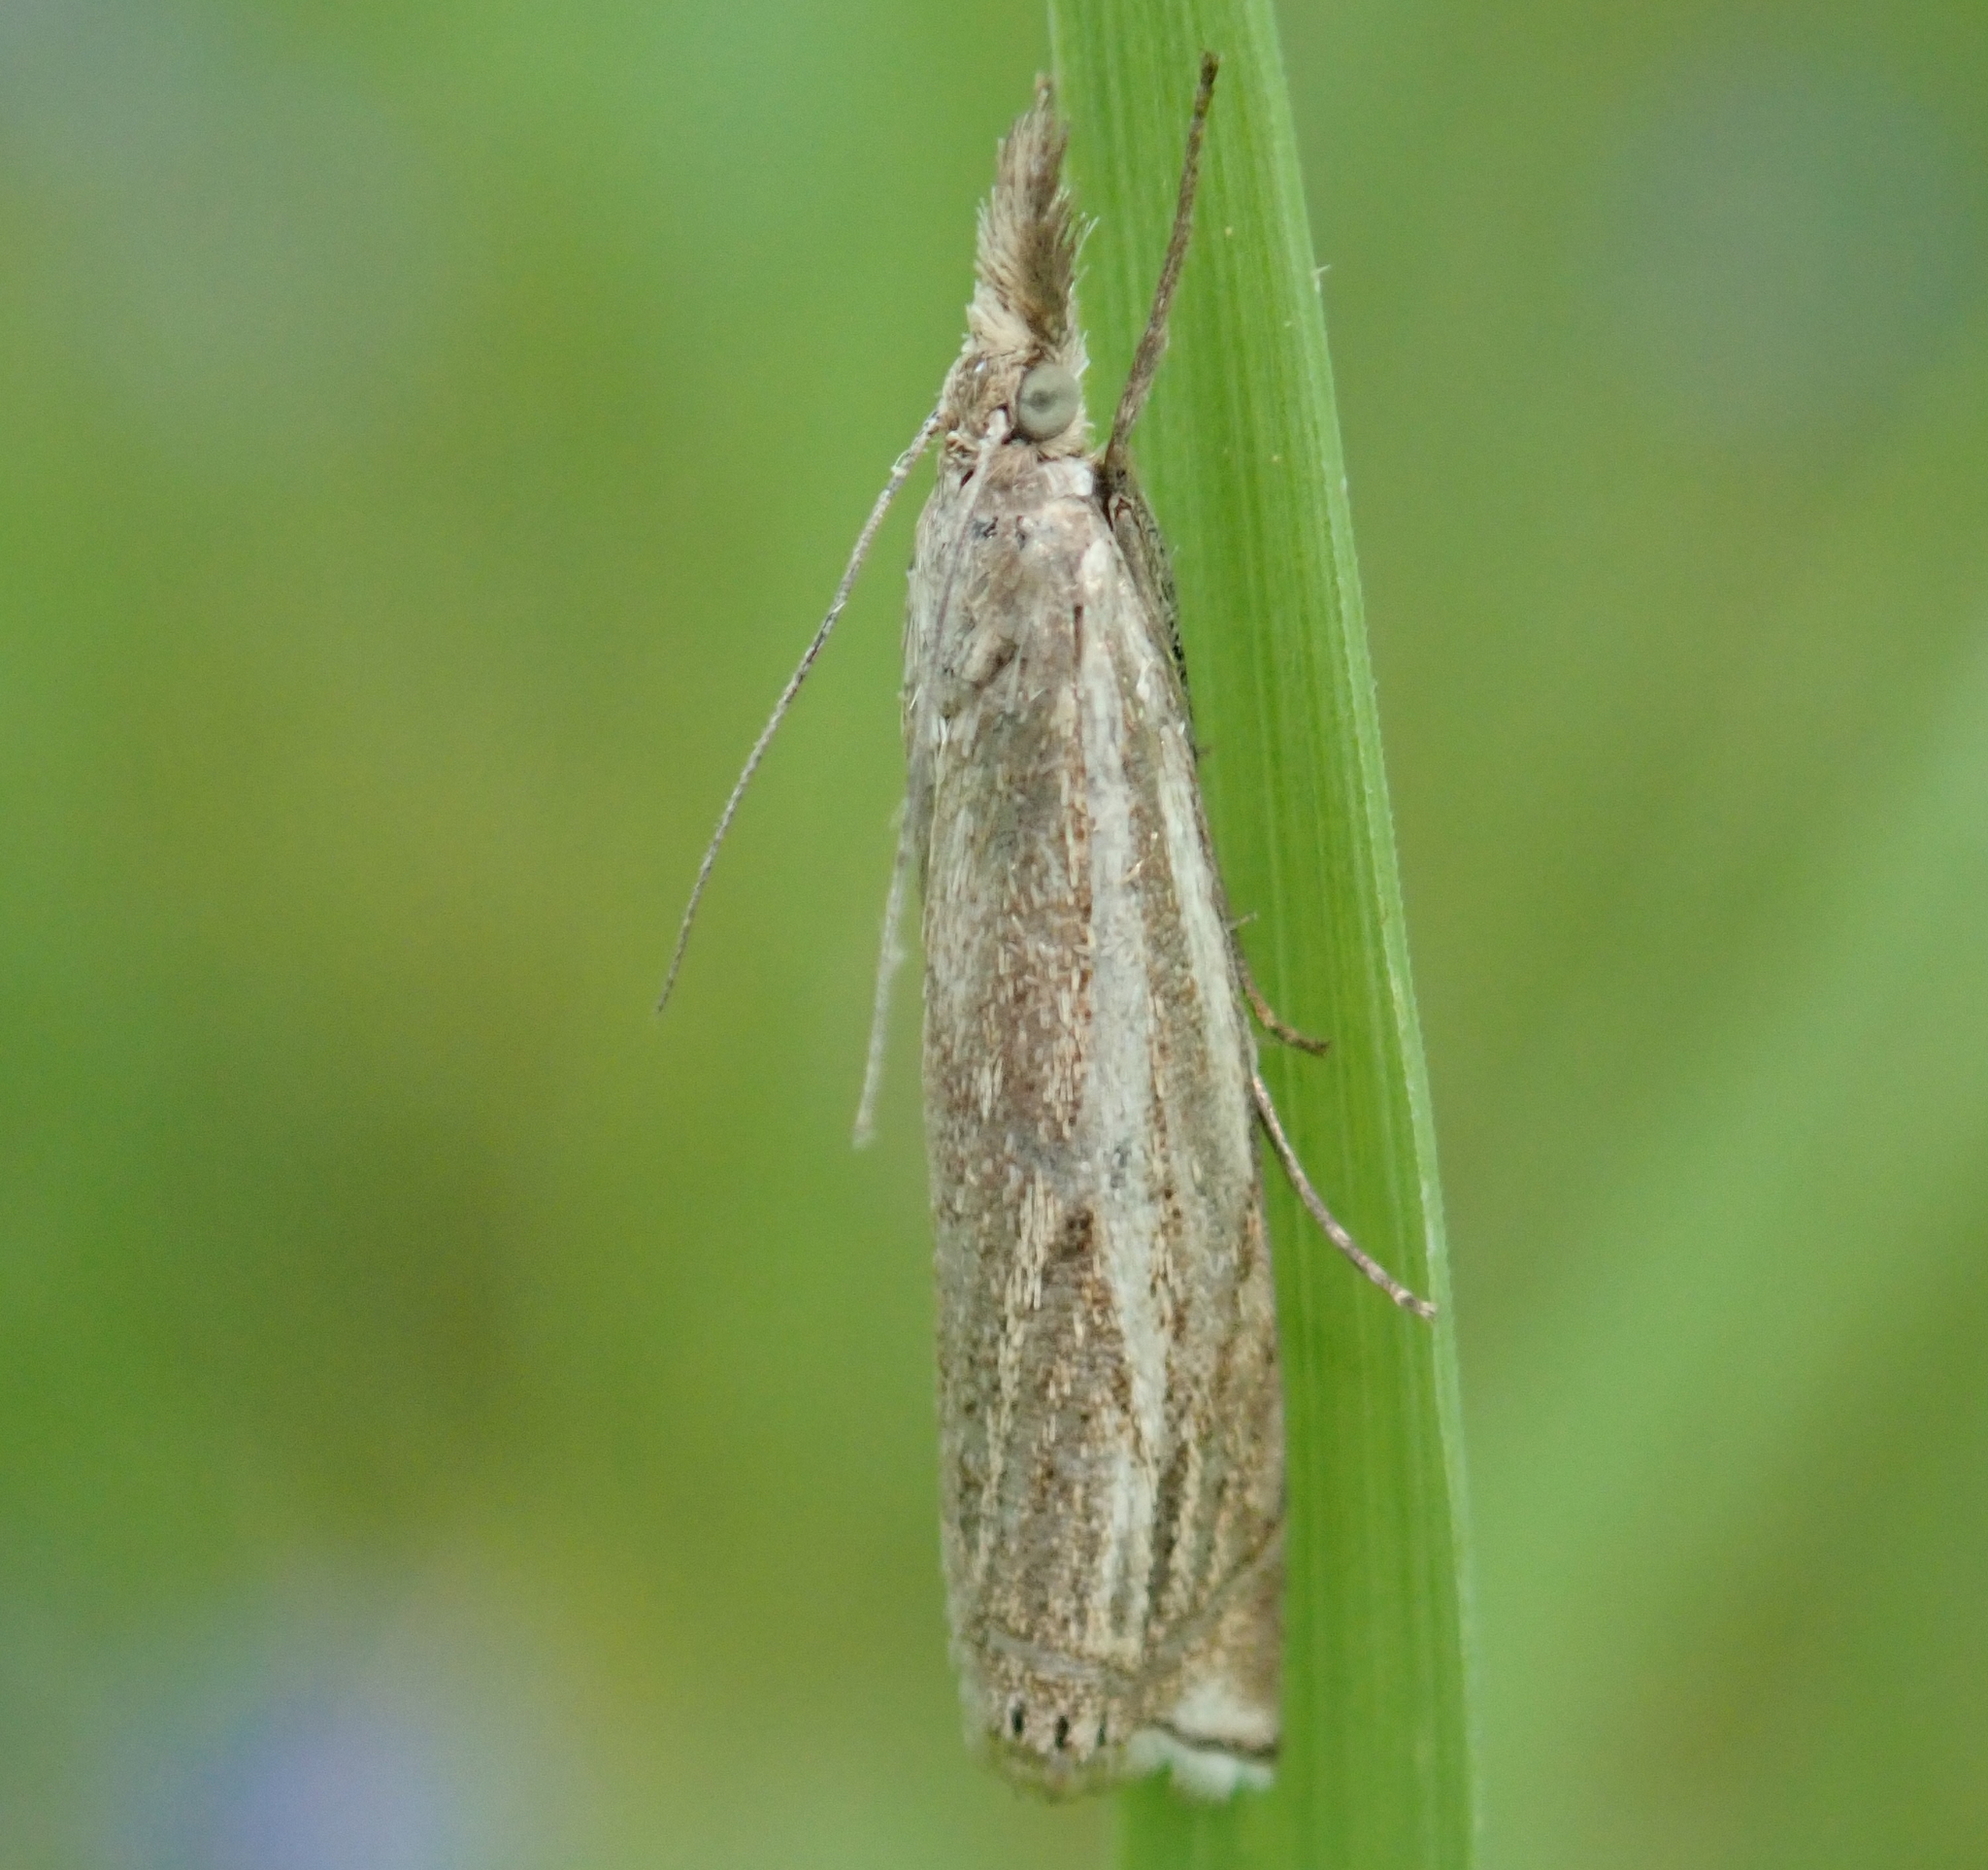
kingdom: Animalia
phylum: Arthropoda
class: Insecta
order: Lepidoptera
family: Crambidae
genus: Crambus
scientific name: Crambus nemorella
